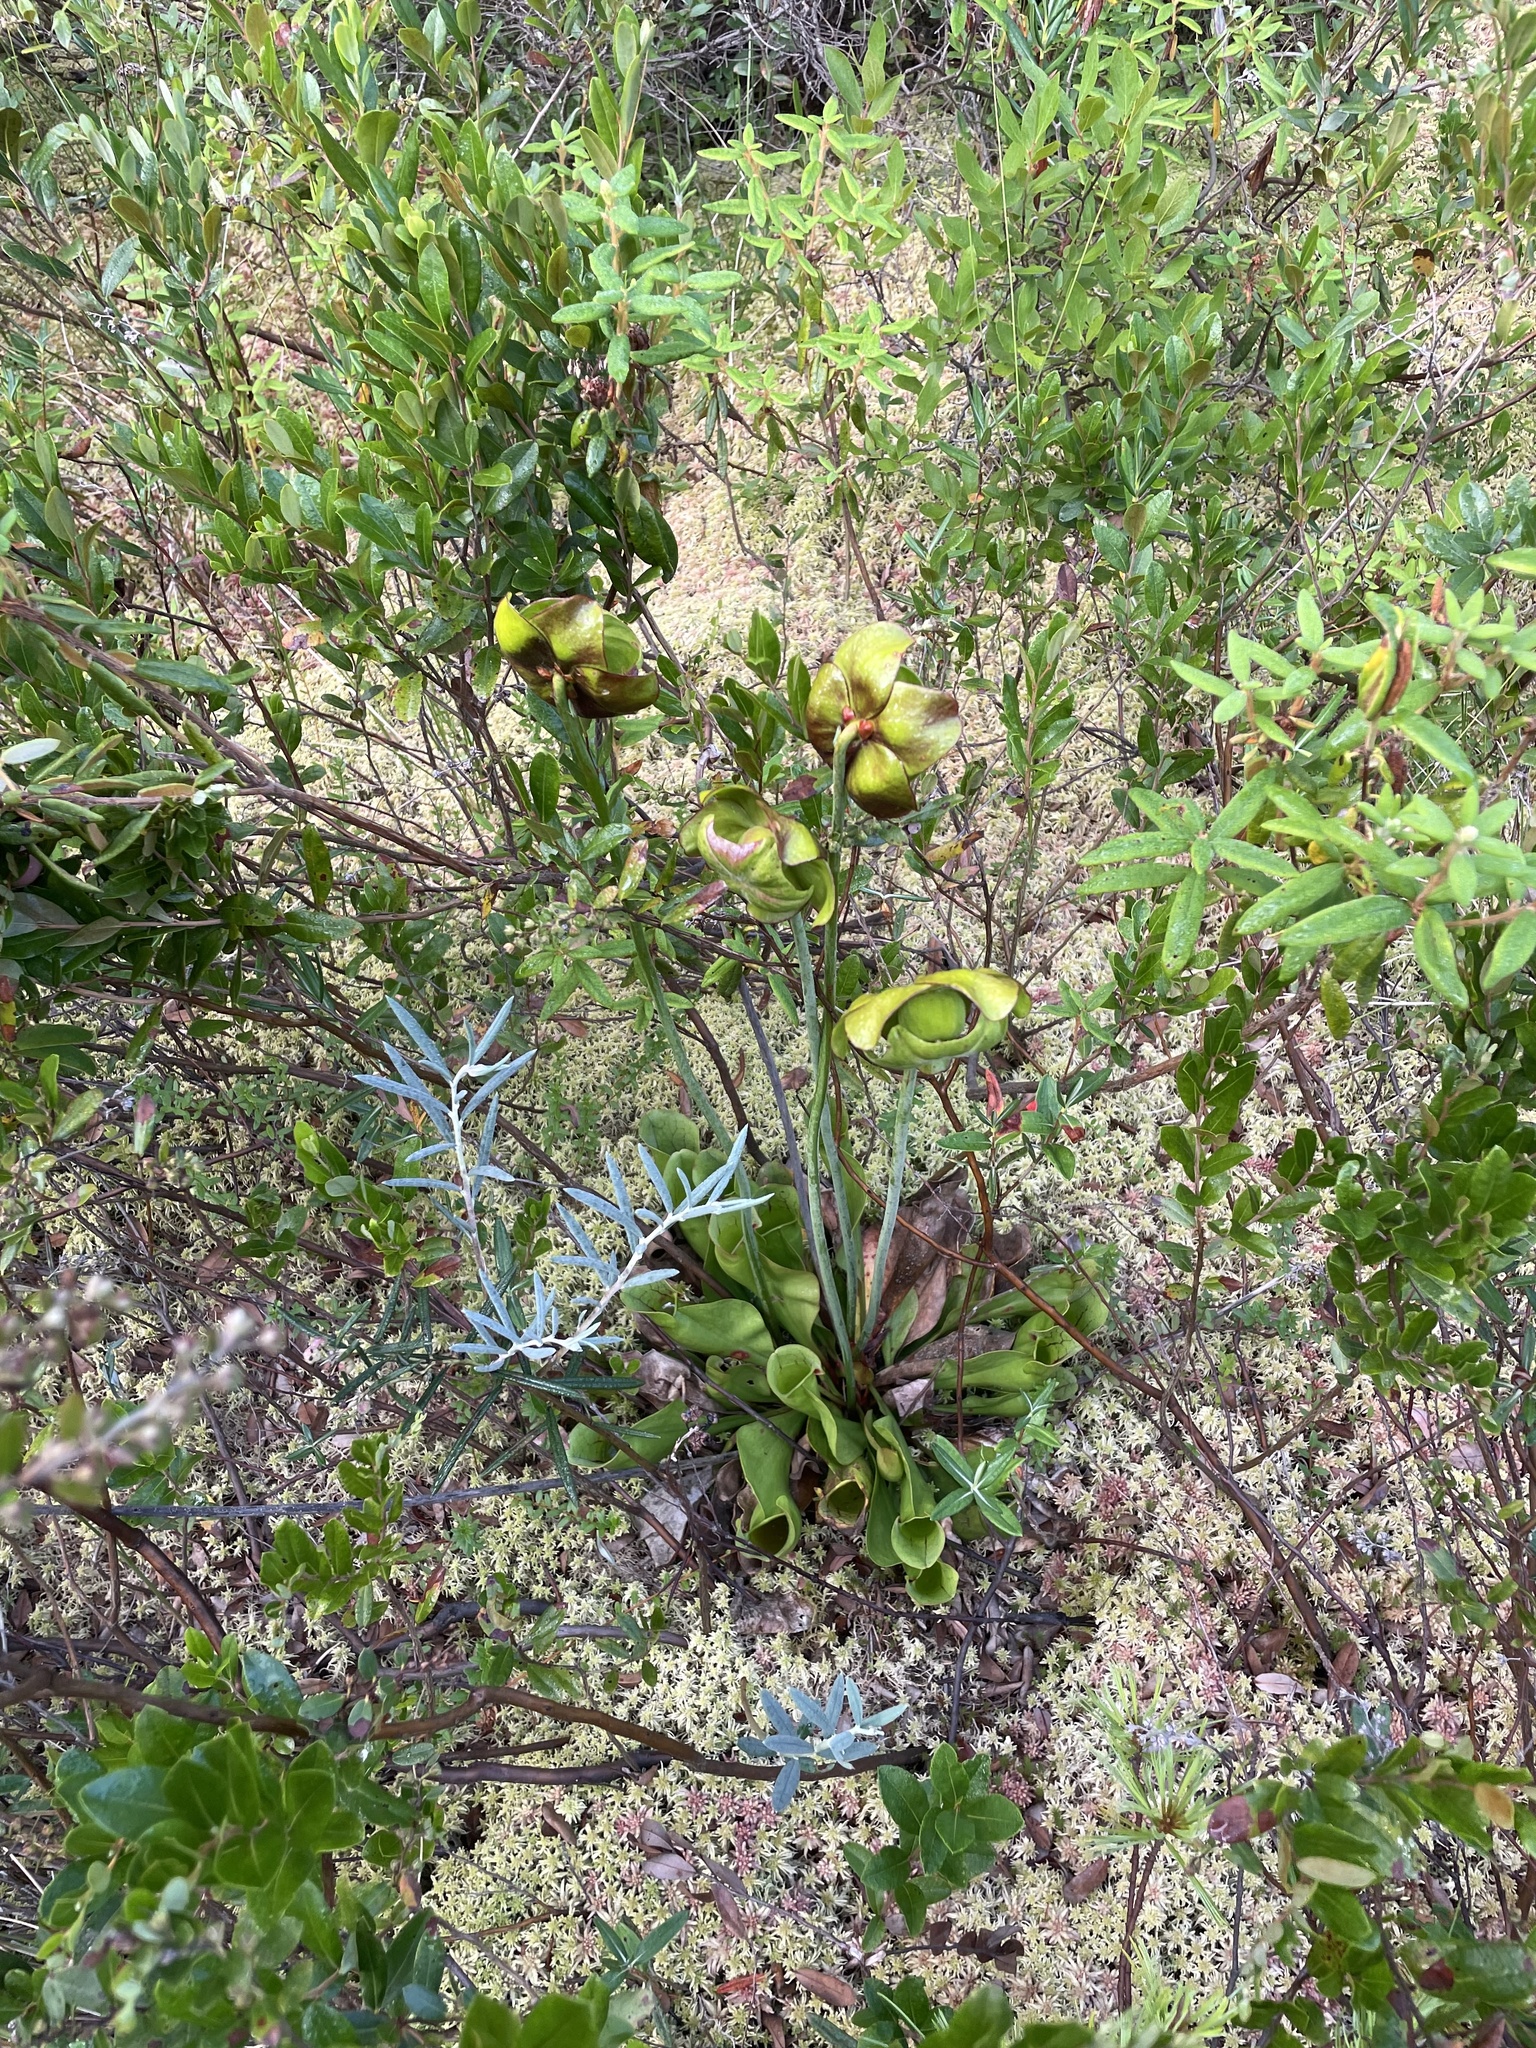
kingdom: Plantae
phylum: Tracheophyta
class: Magnoliopsida
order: Ericales
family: Sarraceniaceae
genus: Sarracenia
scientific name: Sarracenia purpurea
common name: Pitcherplant
